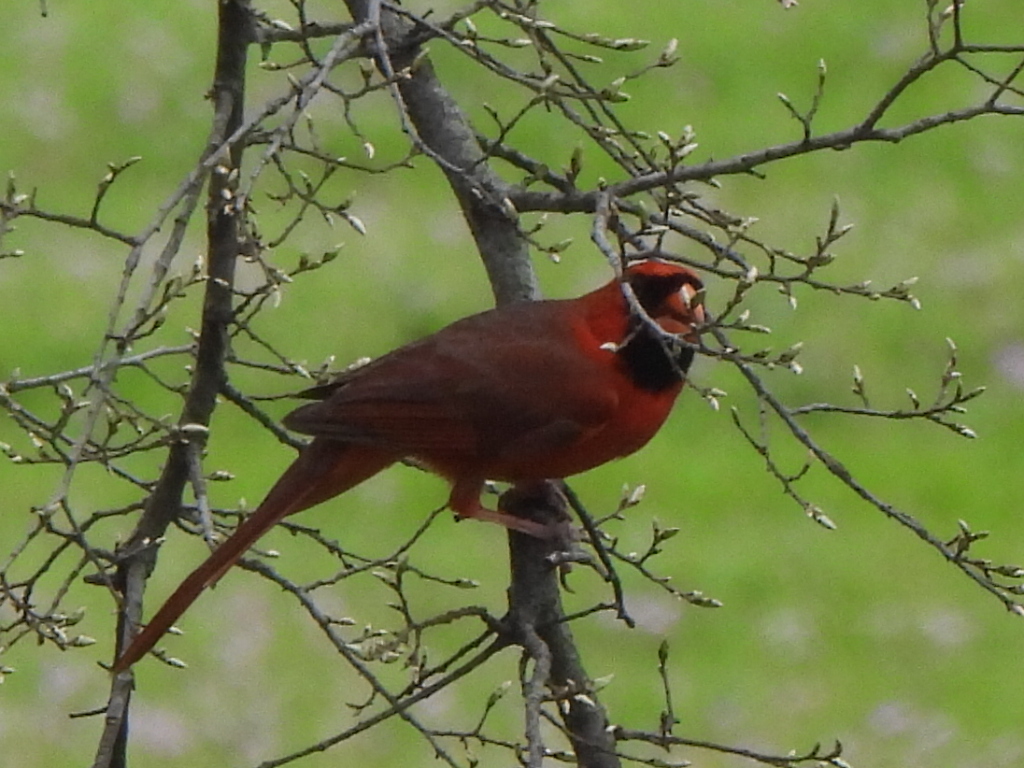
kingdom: Animalia
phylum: Chordata
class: Aves
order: Passeriformes
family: Cardinalidae
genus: Cardinalis
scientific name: Cardinalis cardinalis
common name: Northern cardinal
